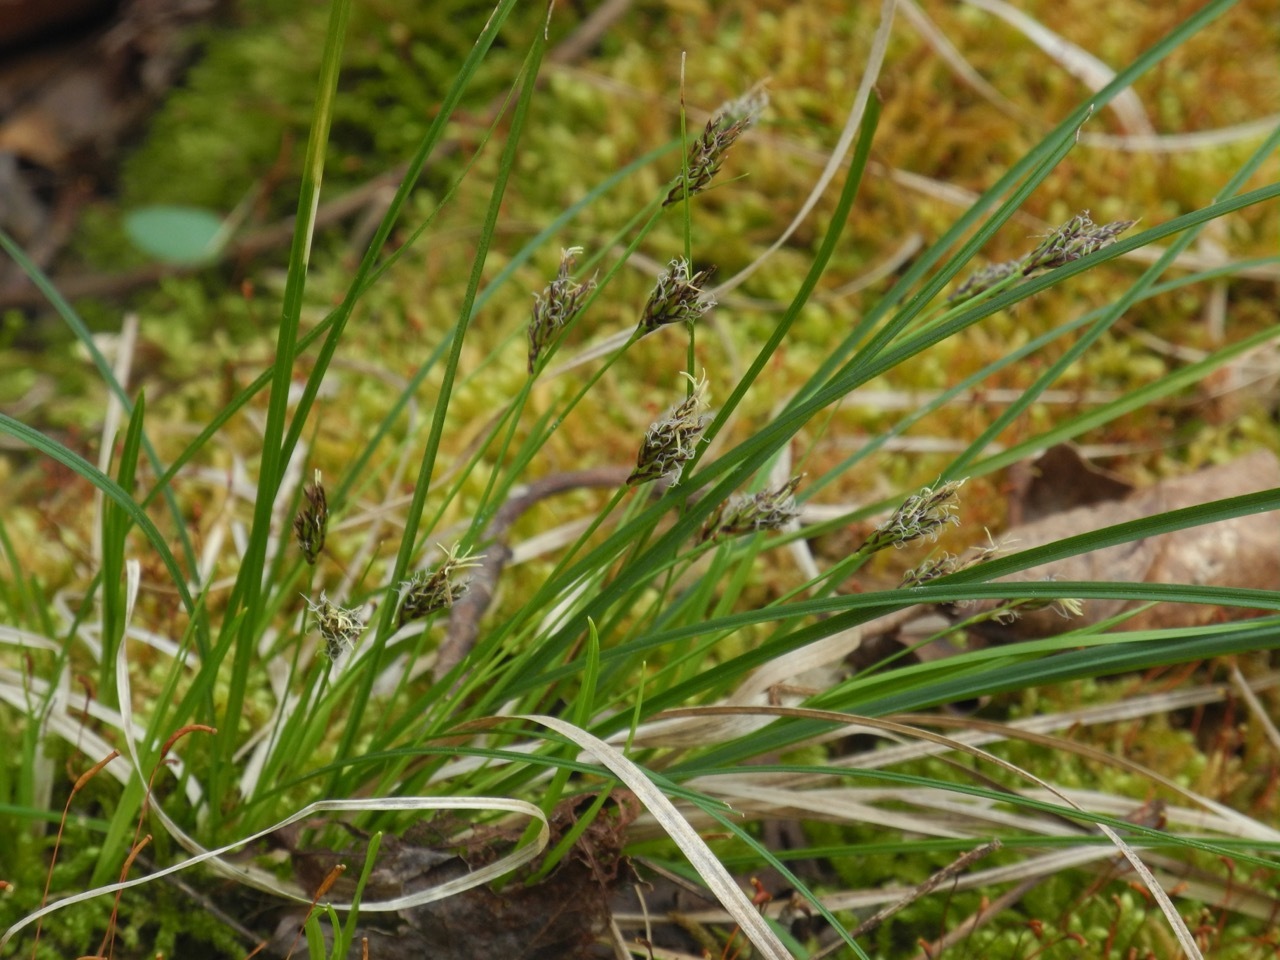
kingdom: Plantae
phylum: Tracheophyta
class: Liliopsida
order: Poales
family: Cyperaceae
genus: Carex
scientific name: Carex nigromarginata
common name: Black-edged sedge
